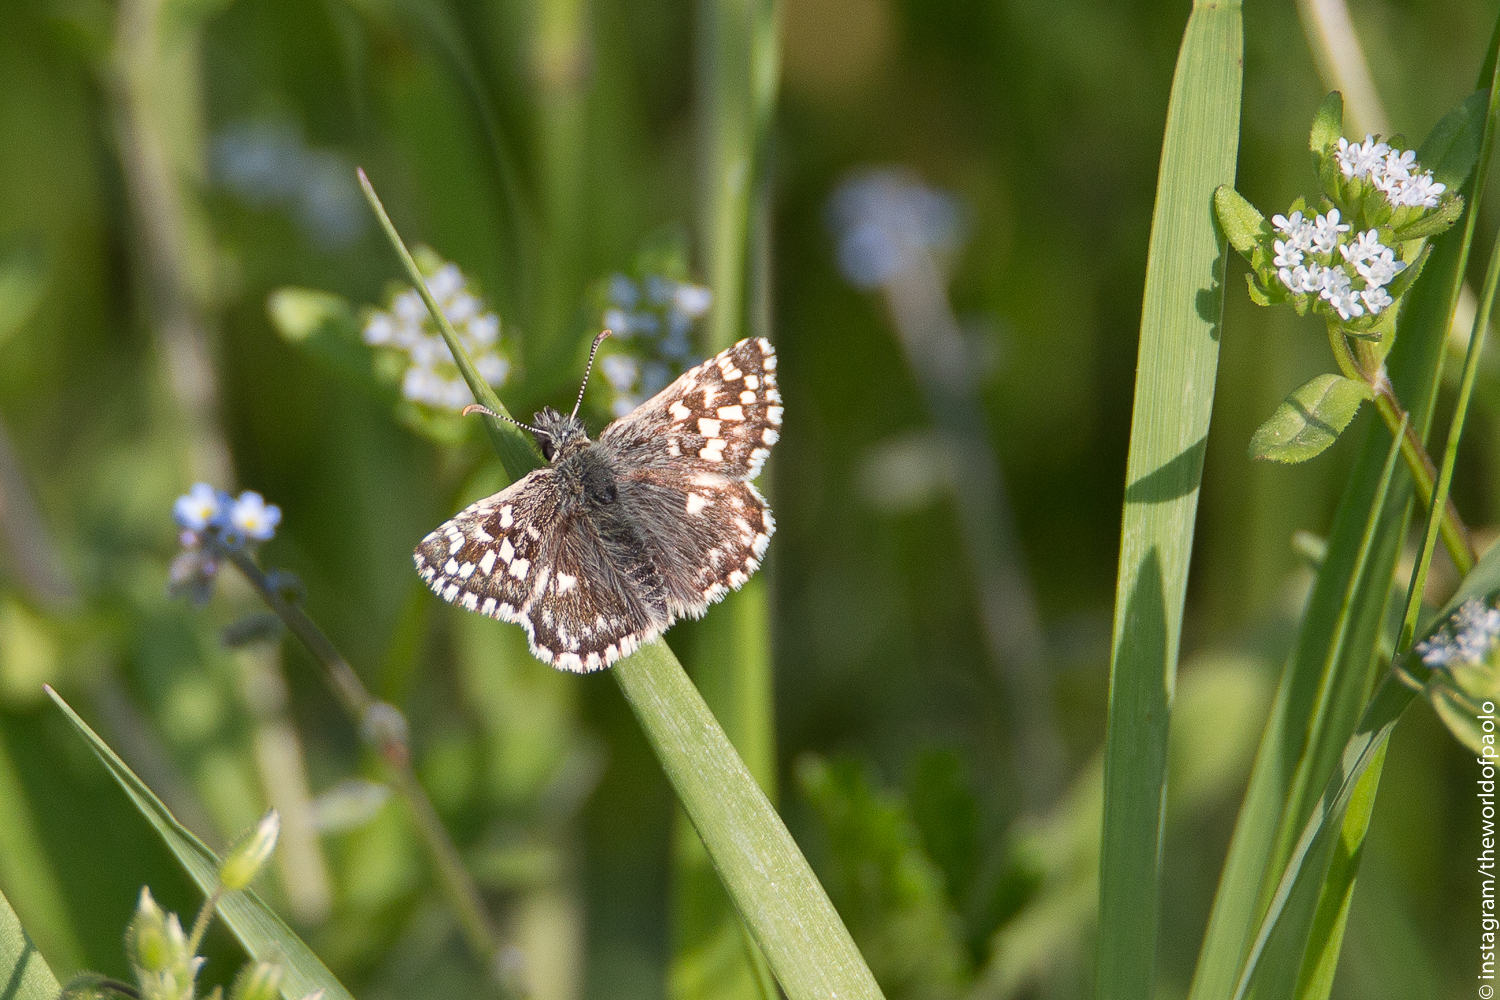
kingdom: Animalia
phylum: Arthropoda
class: Insecta
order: Lepidoptera
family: Hesperiidae
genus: Pyrgus
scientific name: Pyrgus malvoides
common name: Southern grizzled skipper
